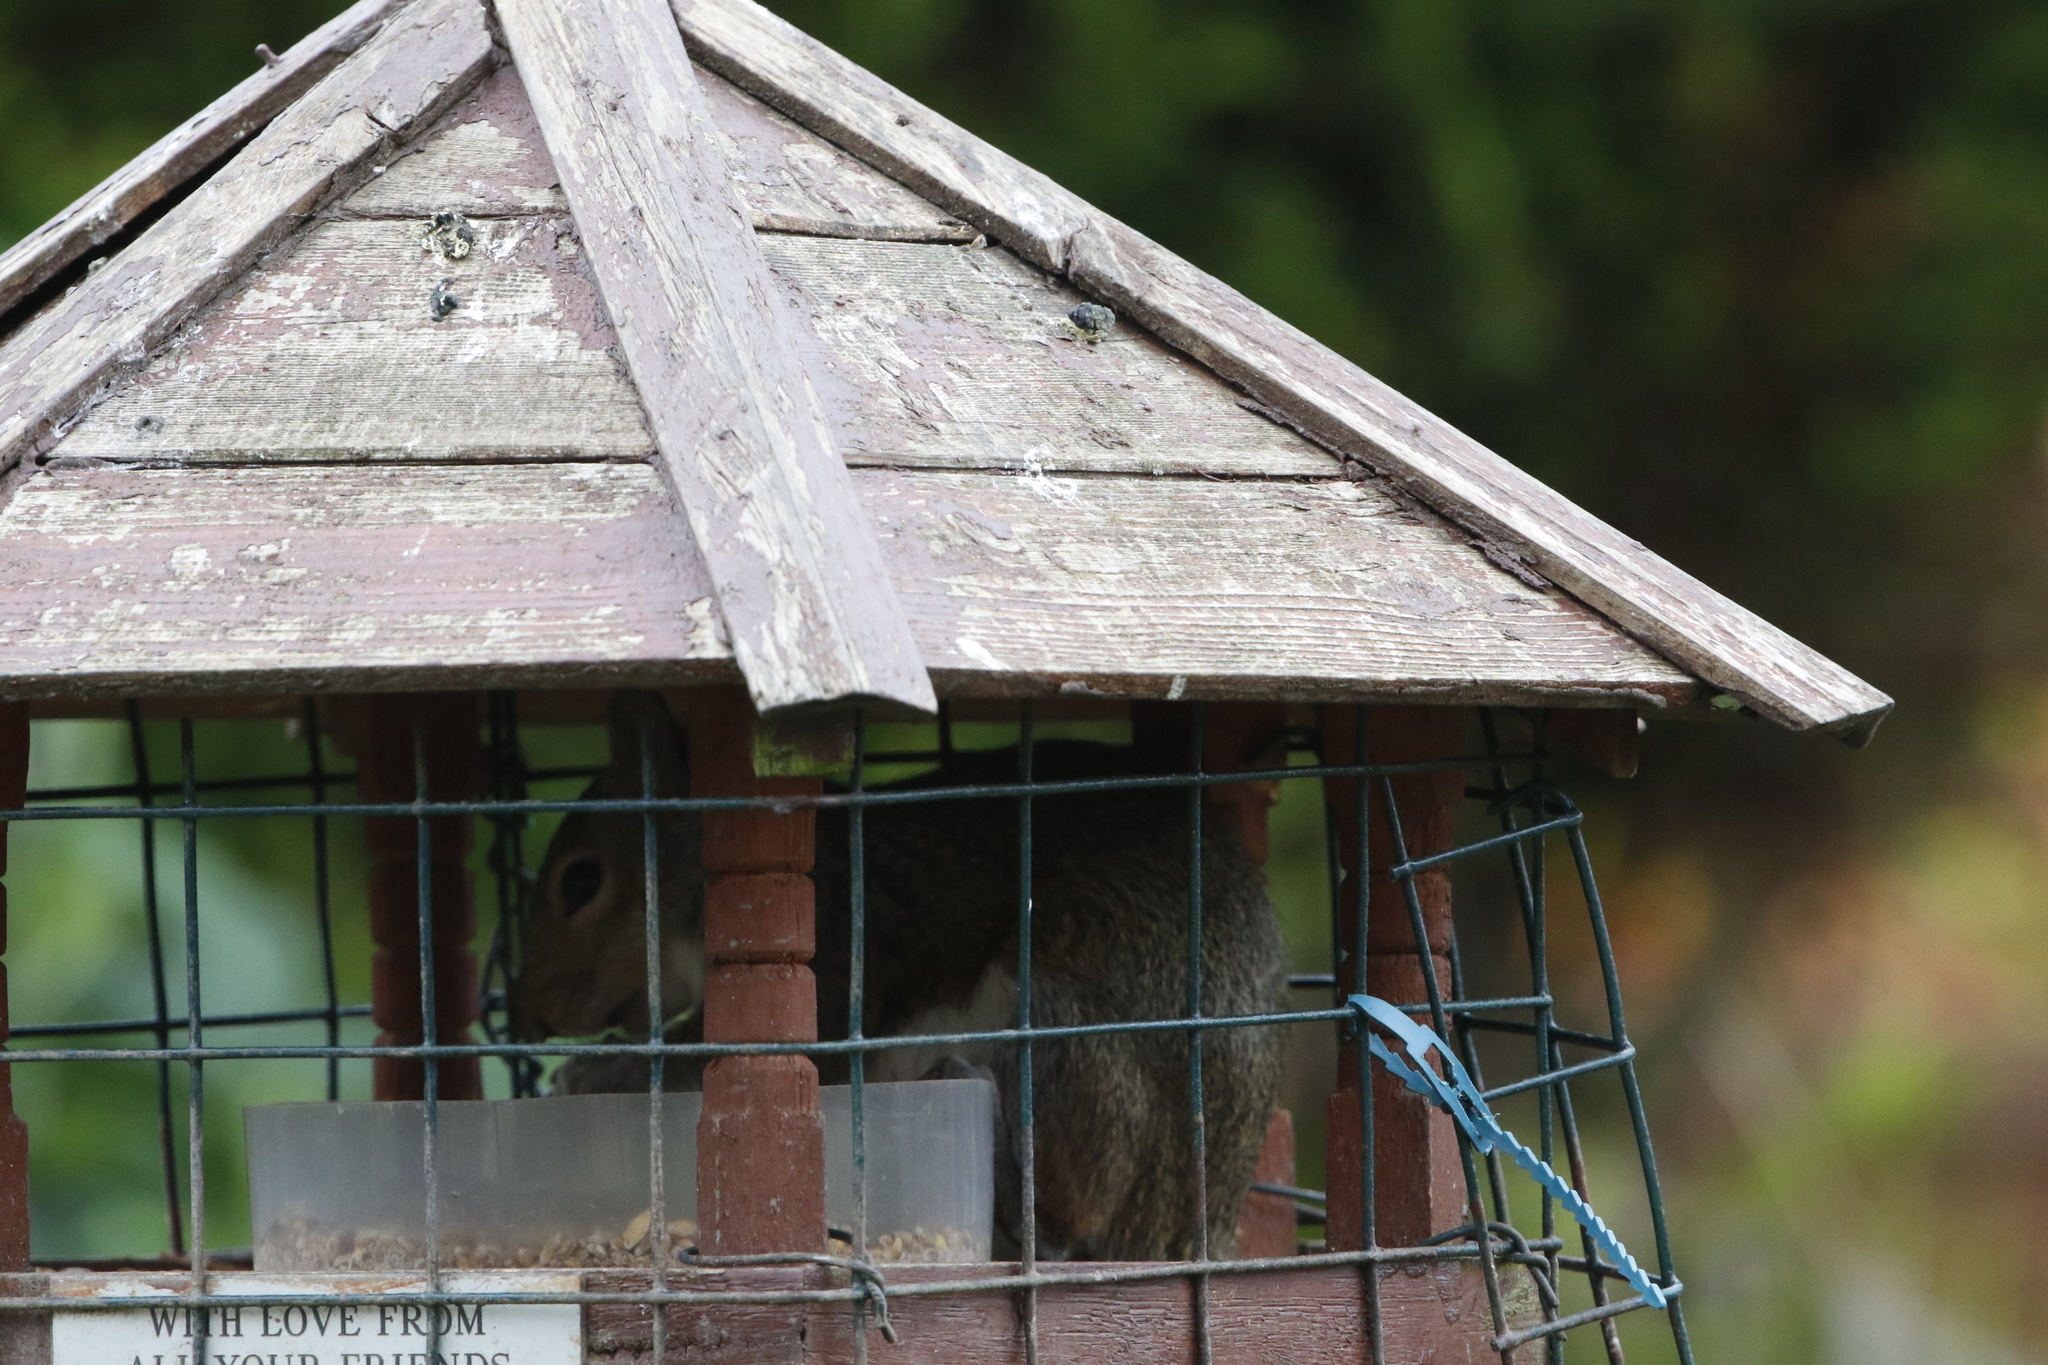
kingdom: Animalia
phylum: Chordata
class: Mammalia
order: Rodentia
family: Sciuridae
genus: Sciurus
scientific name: Sciurus carolinensis
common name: Eastern gray squirrel
